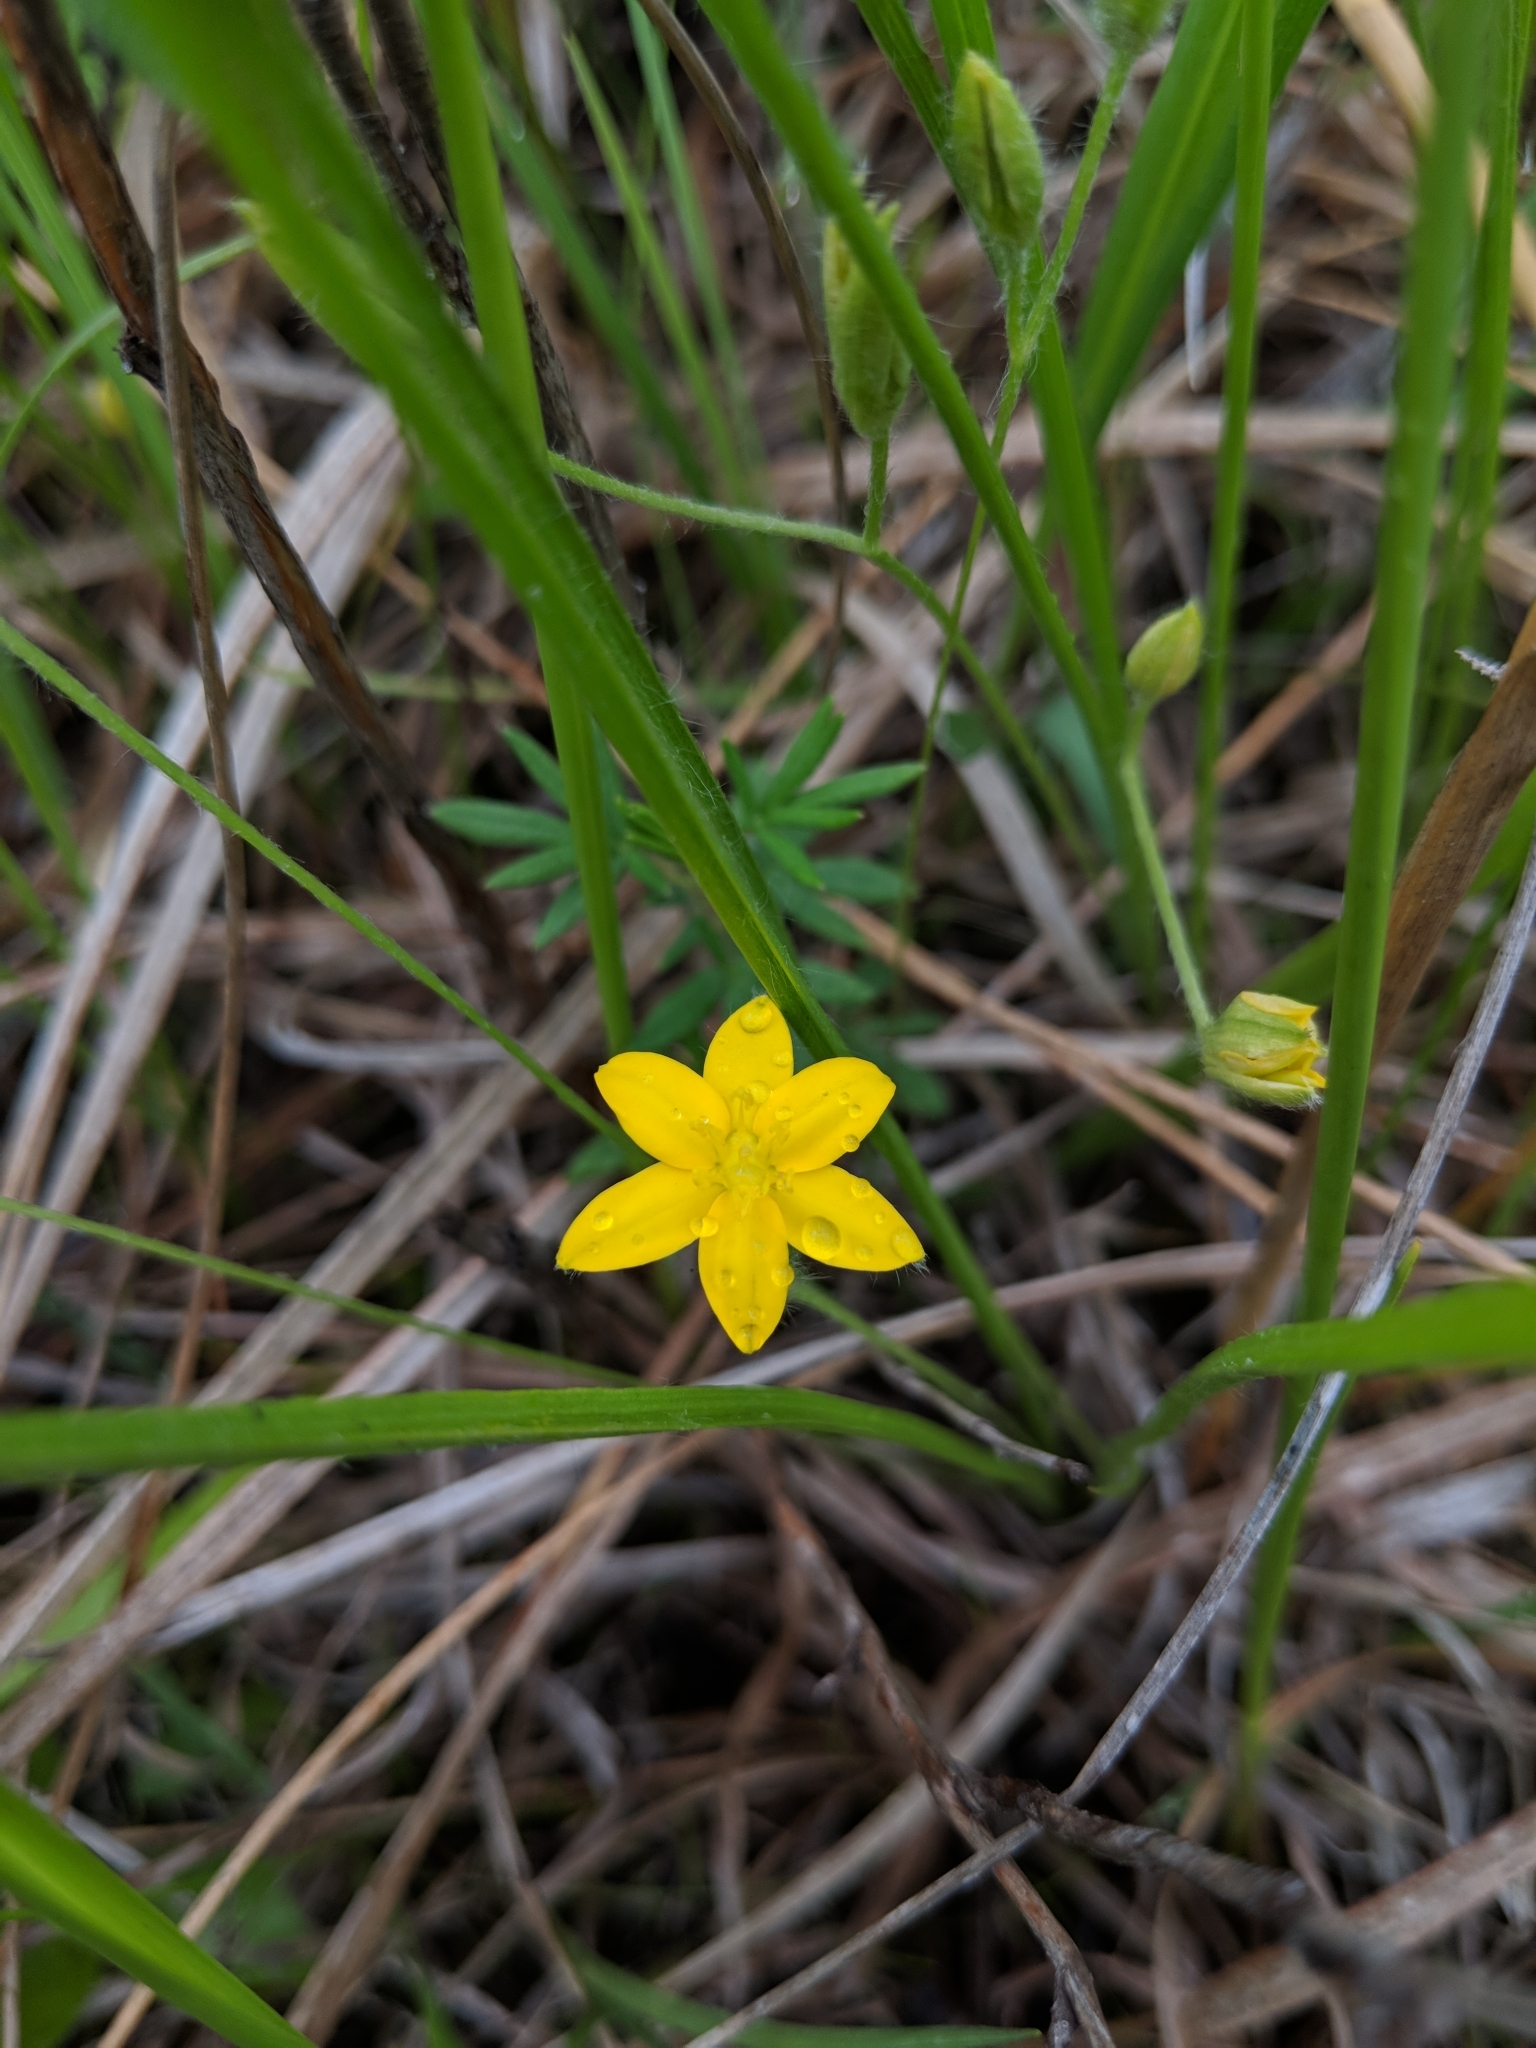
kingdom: Plantae
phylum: Tracheophyta
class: Liliopsida
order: Asparagales
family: Hypoxidaceae
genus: Hypoxis
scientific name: Hypoxis hirsuta
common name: Common goldstar
